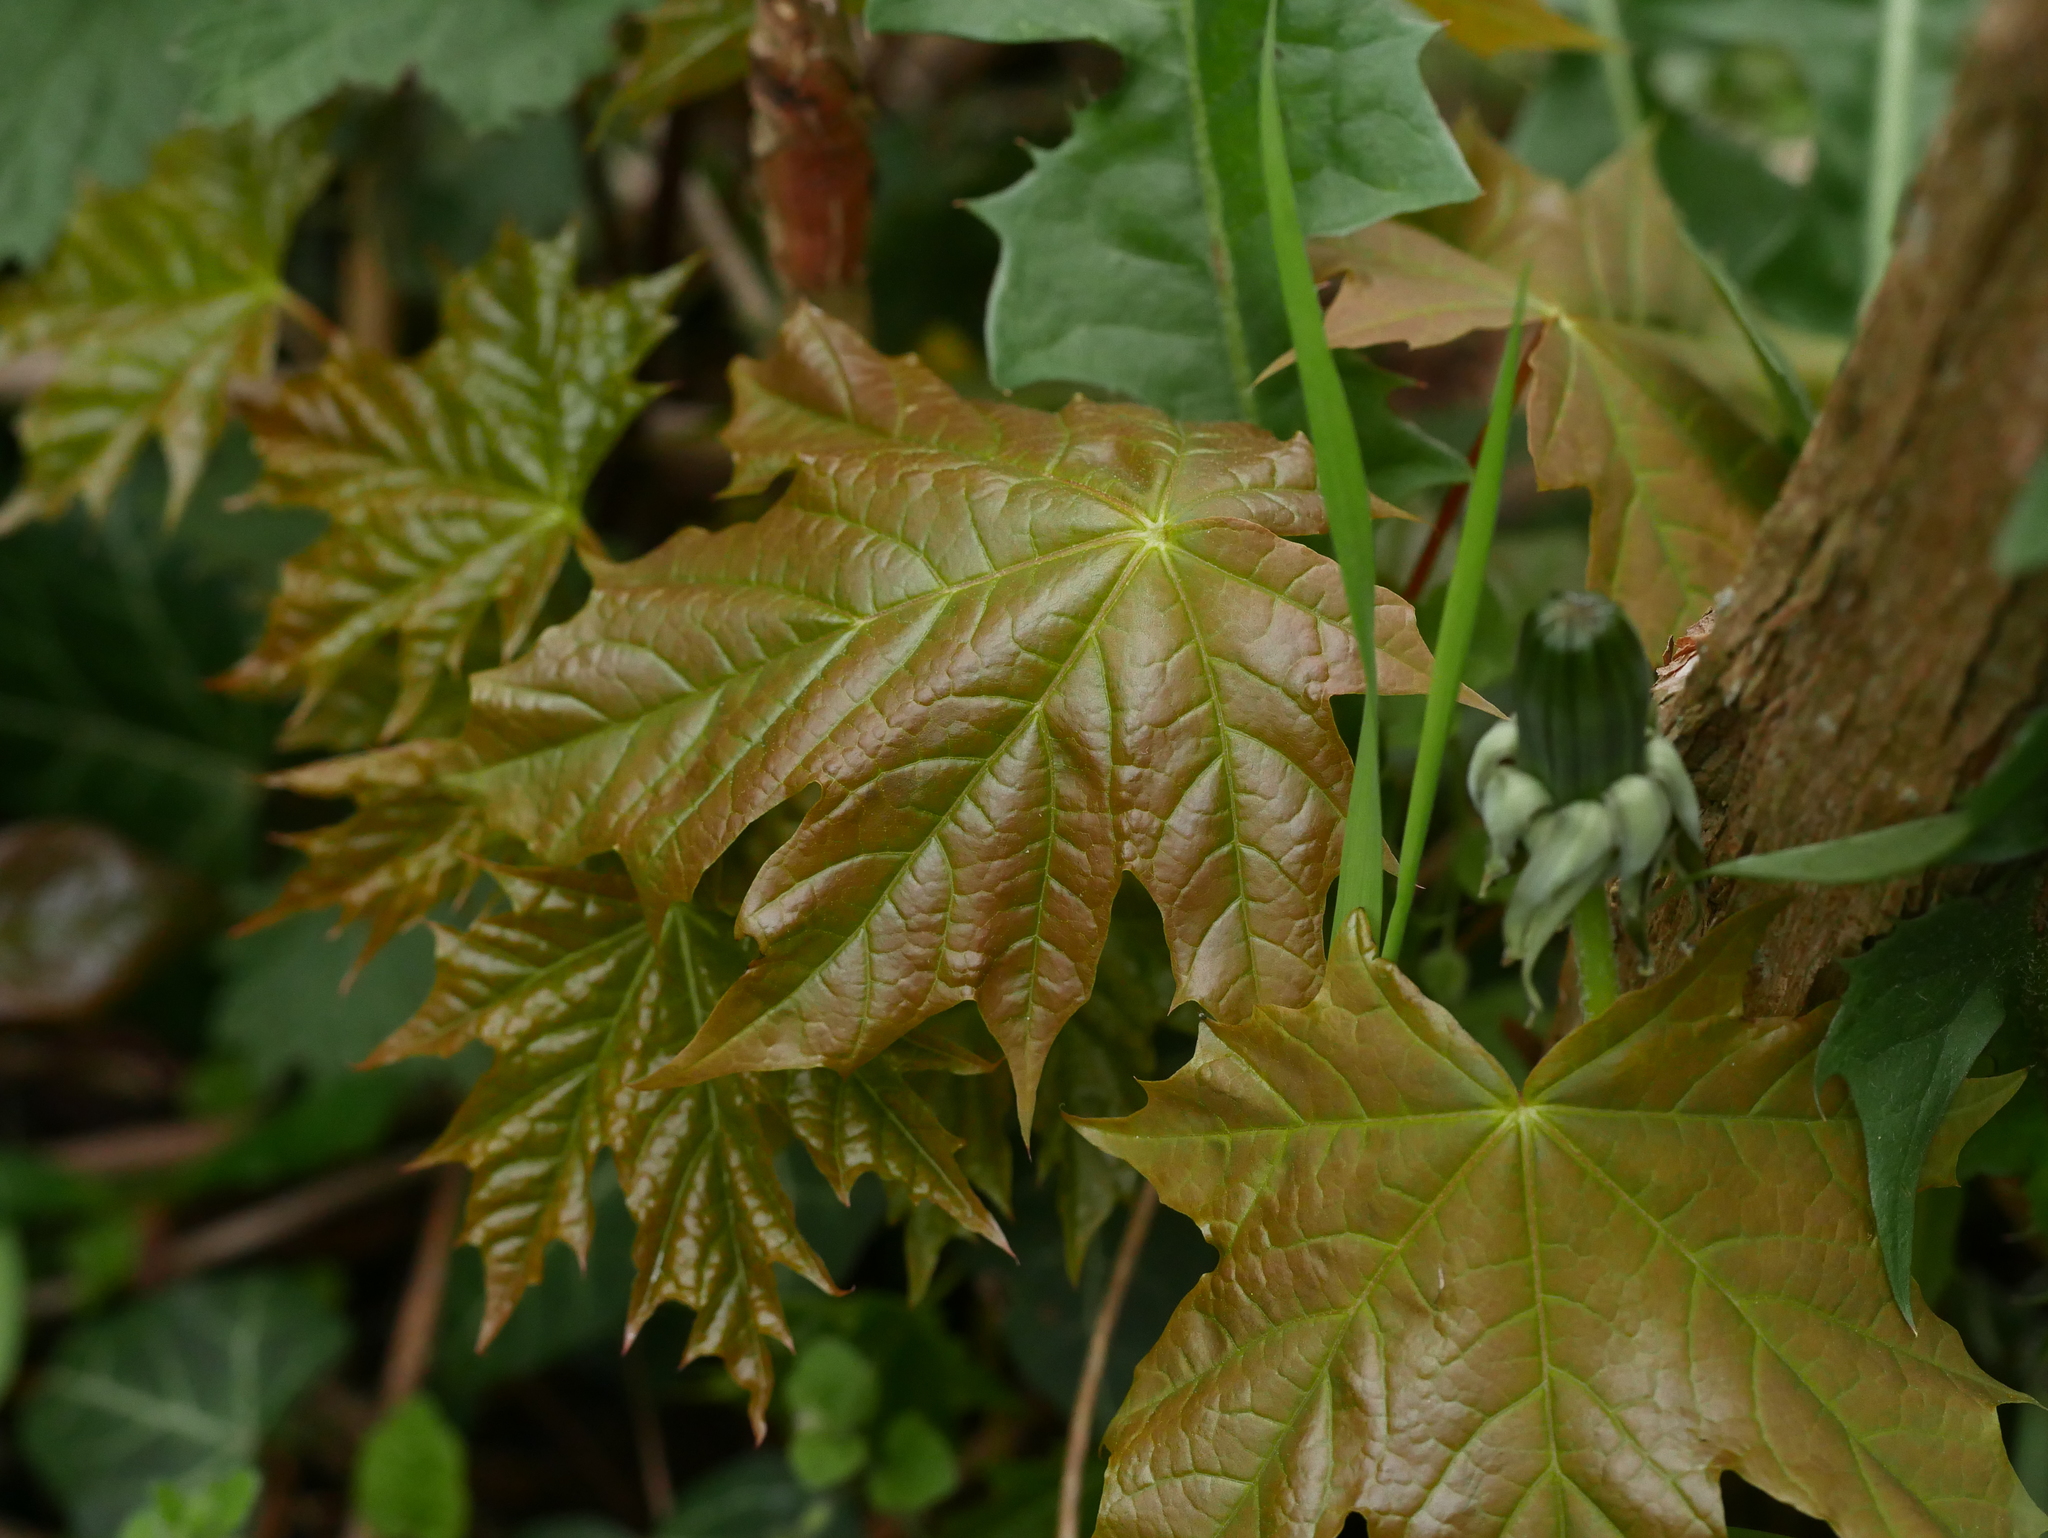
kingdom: Plantae
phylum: Tracheophyta
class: Magnoliopsida
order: Sapindales
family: Sapindaceae
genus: Acer
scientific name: Acer platanoides
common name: Norway maple
